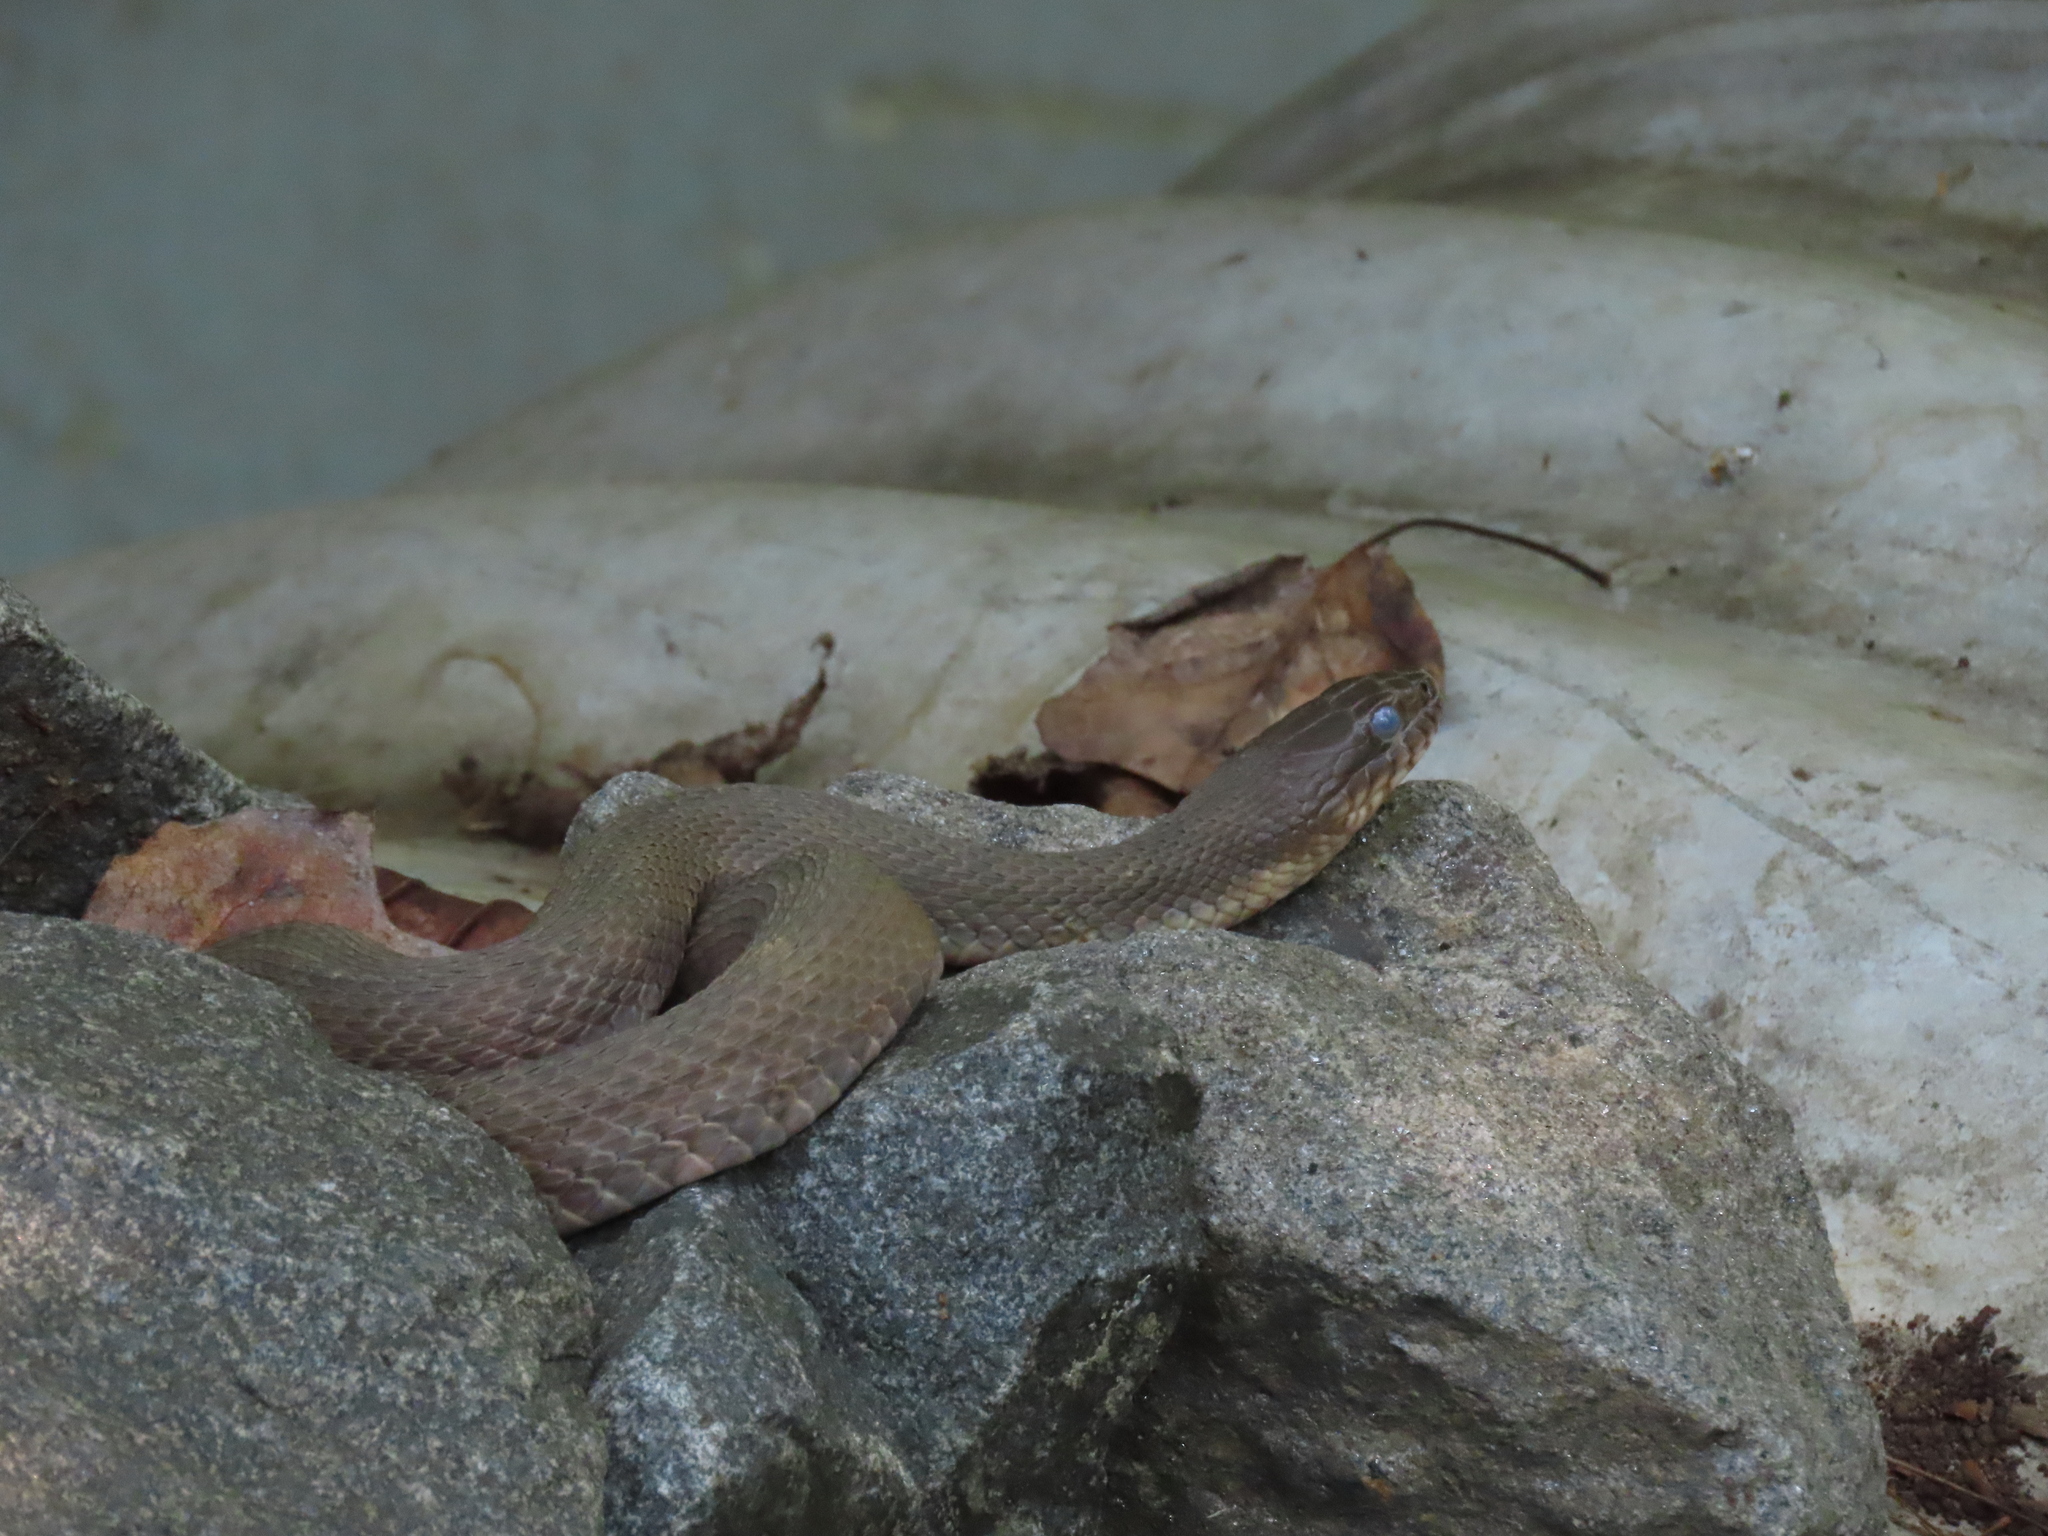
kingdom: Animalia
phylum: Chordata
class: Squamata
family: Colubridae
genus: Nerodia
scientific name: Nerodia sipedon
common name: Northern water snake
